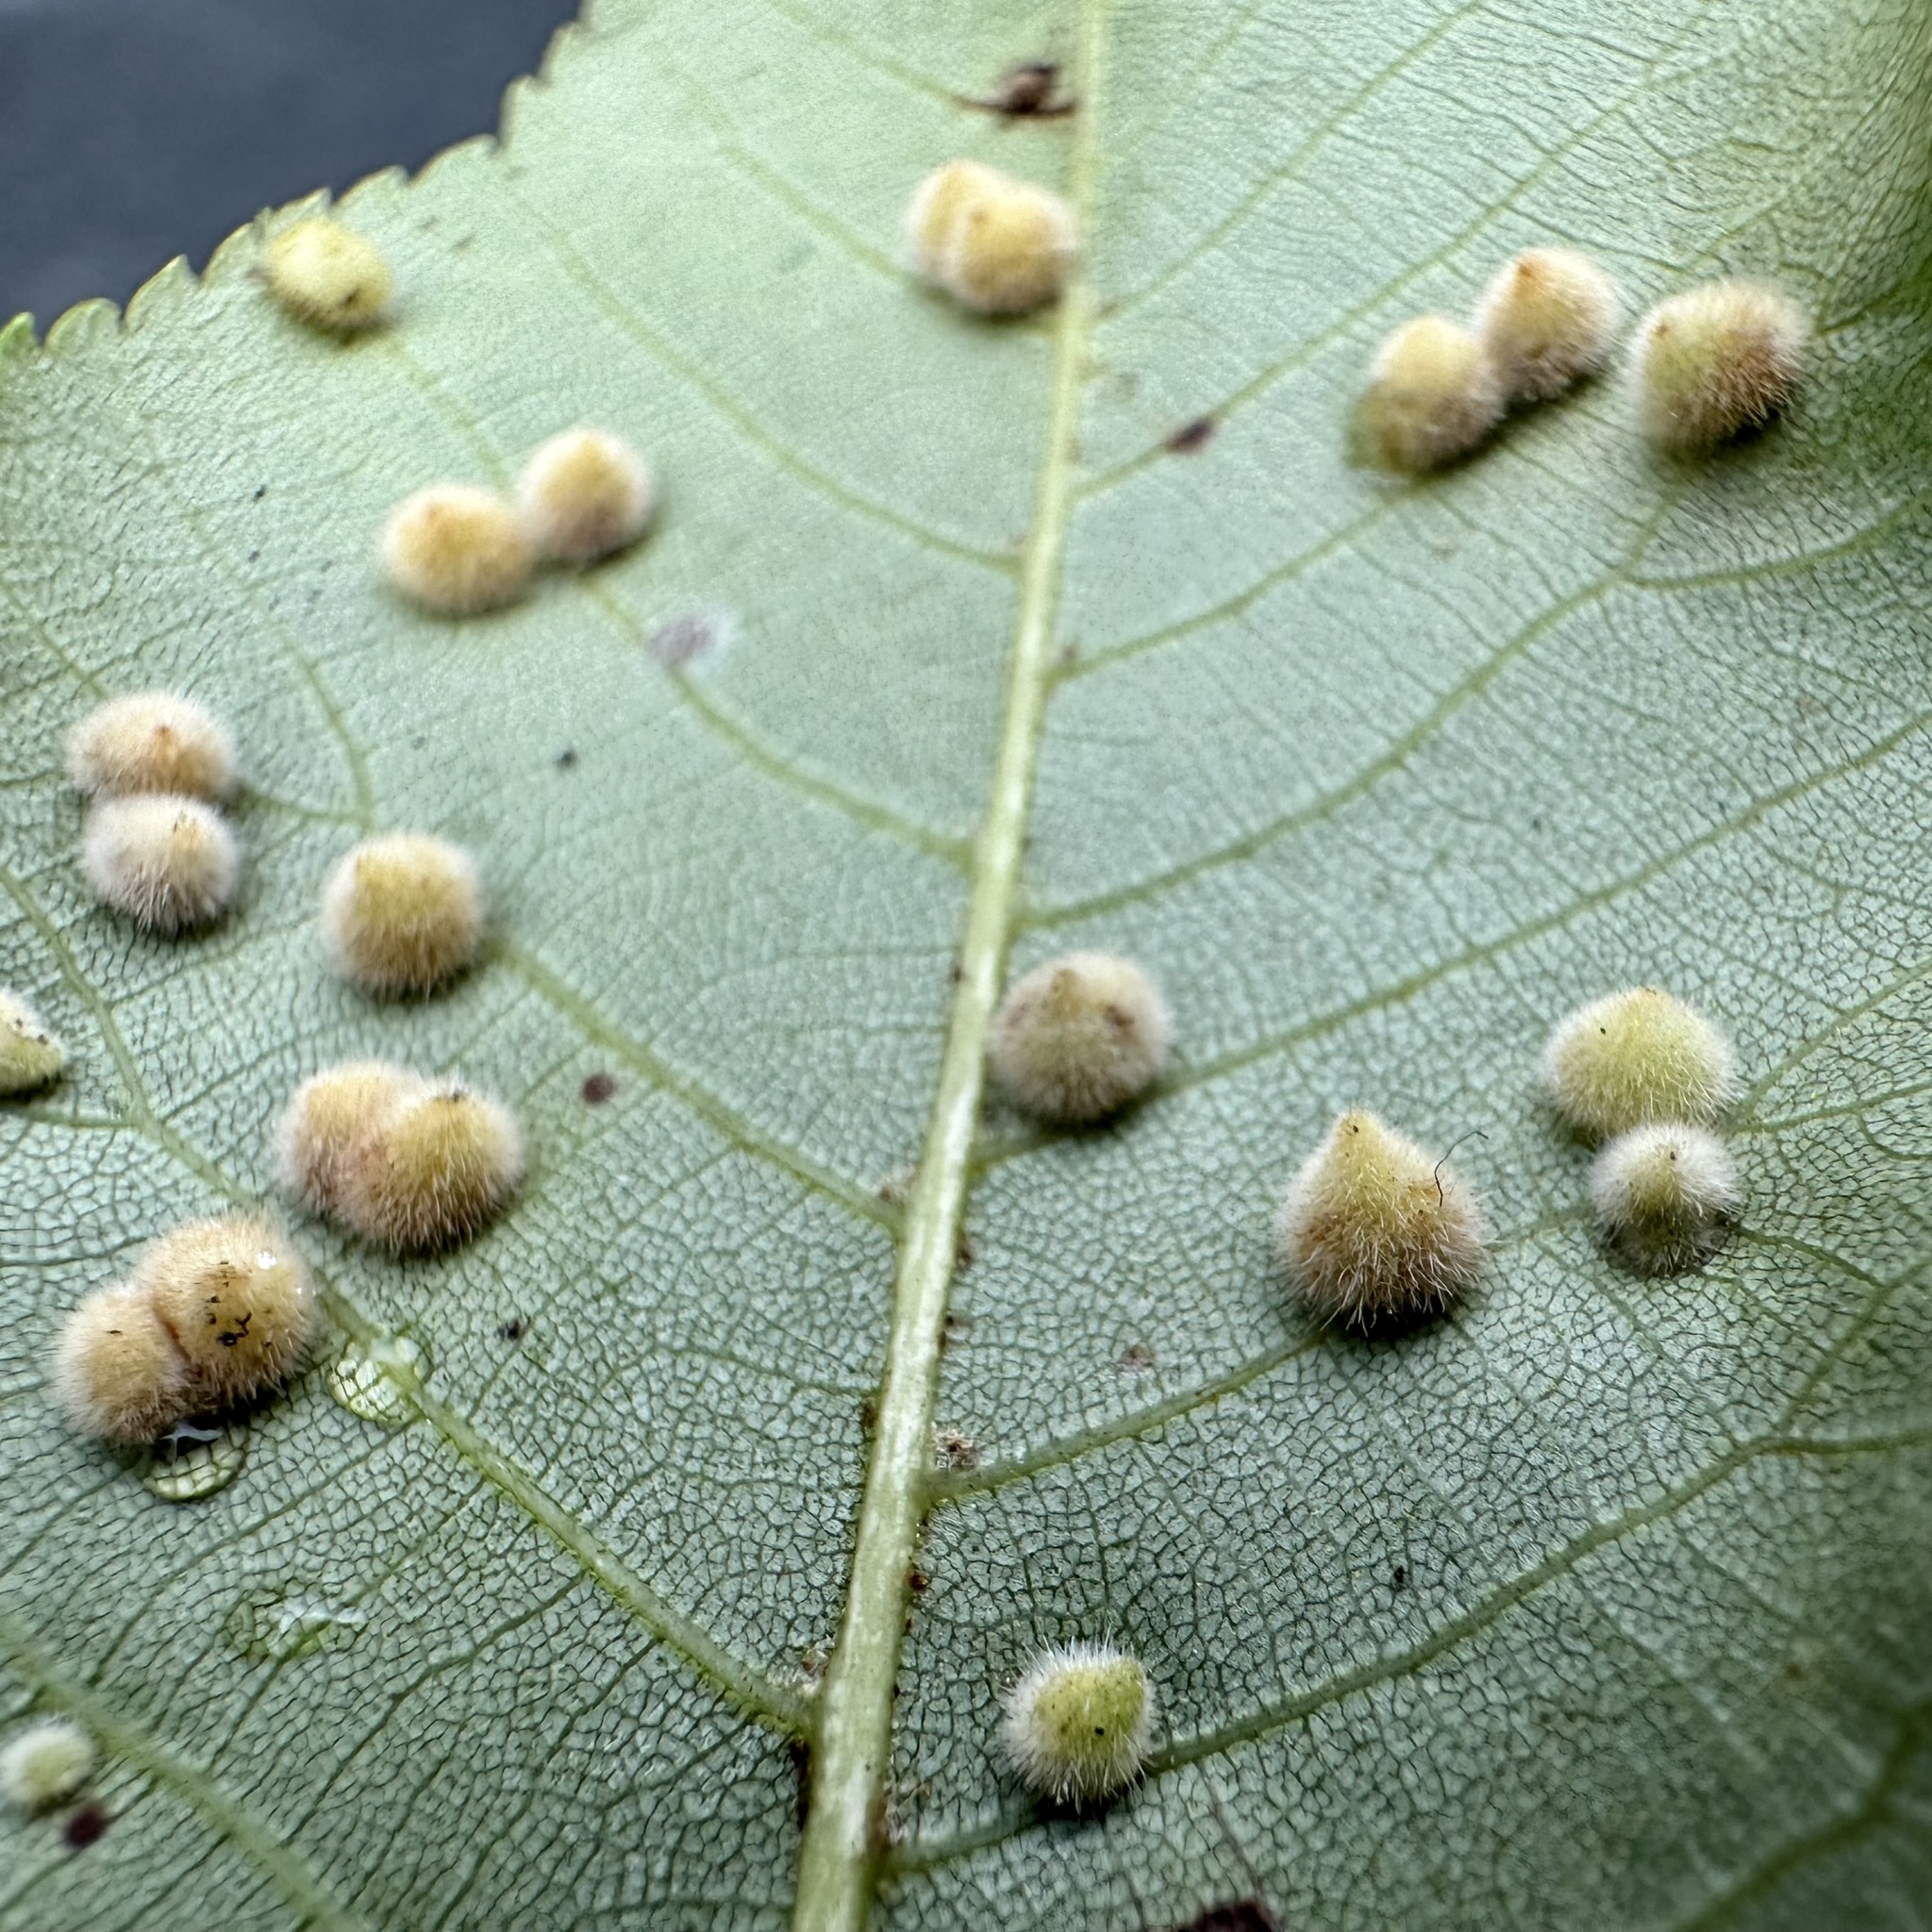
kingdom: Animalia
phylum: Arthropoda
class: Insecta
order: Diptera
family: Cecidomyiidae
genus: Caryomyia
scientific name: Caryomyia purpurea
